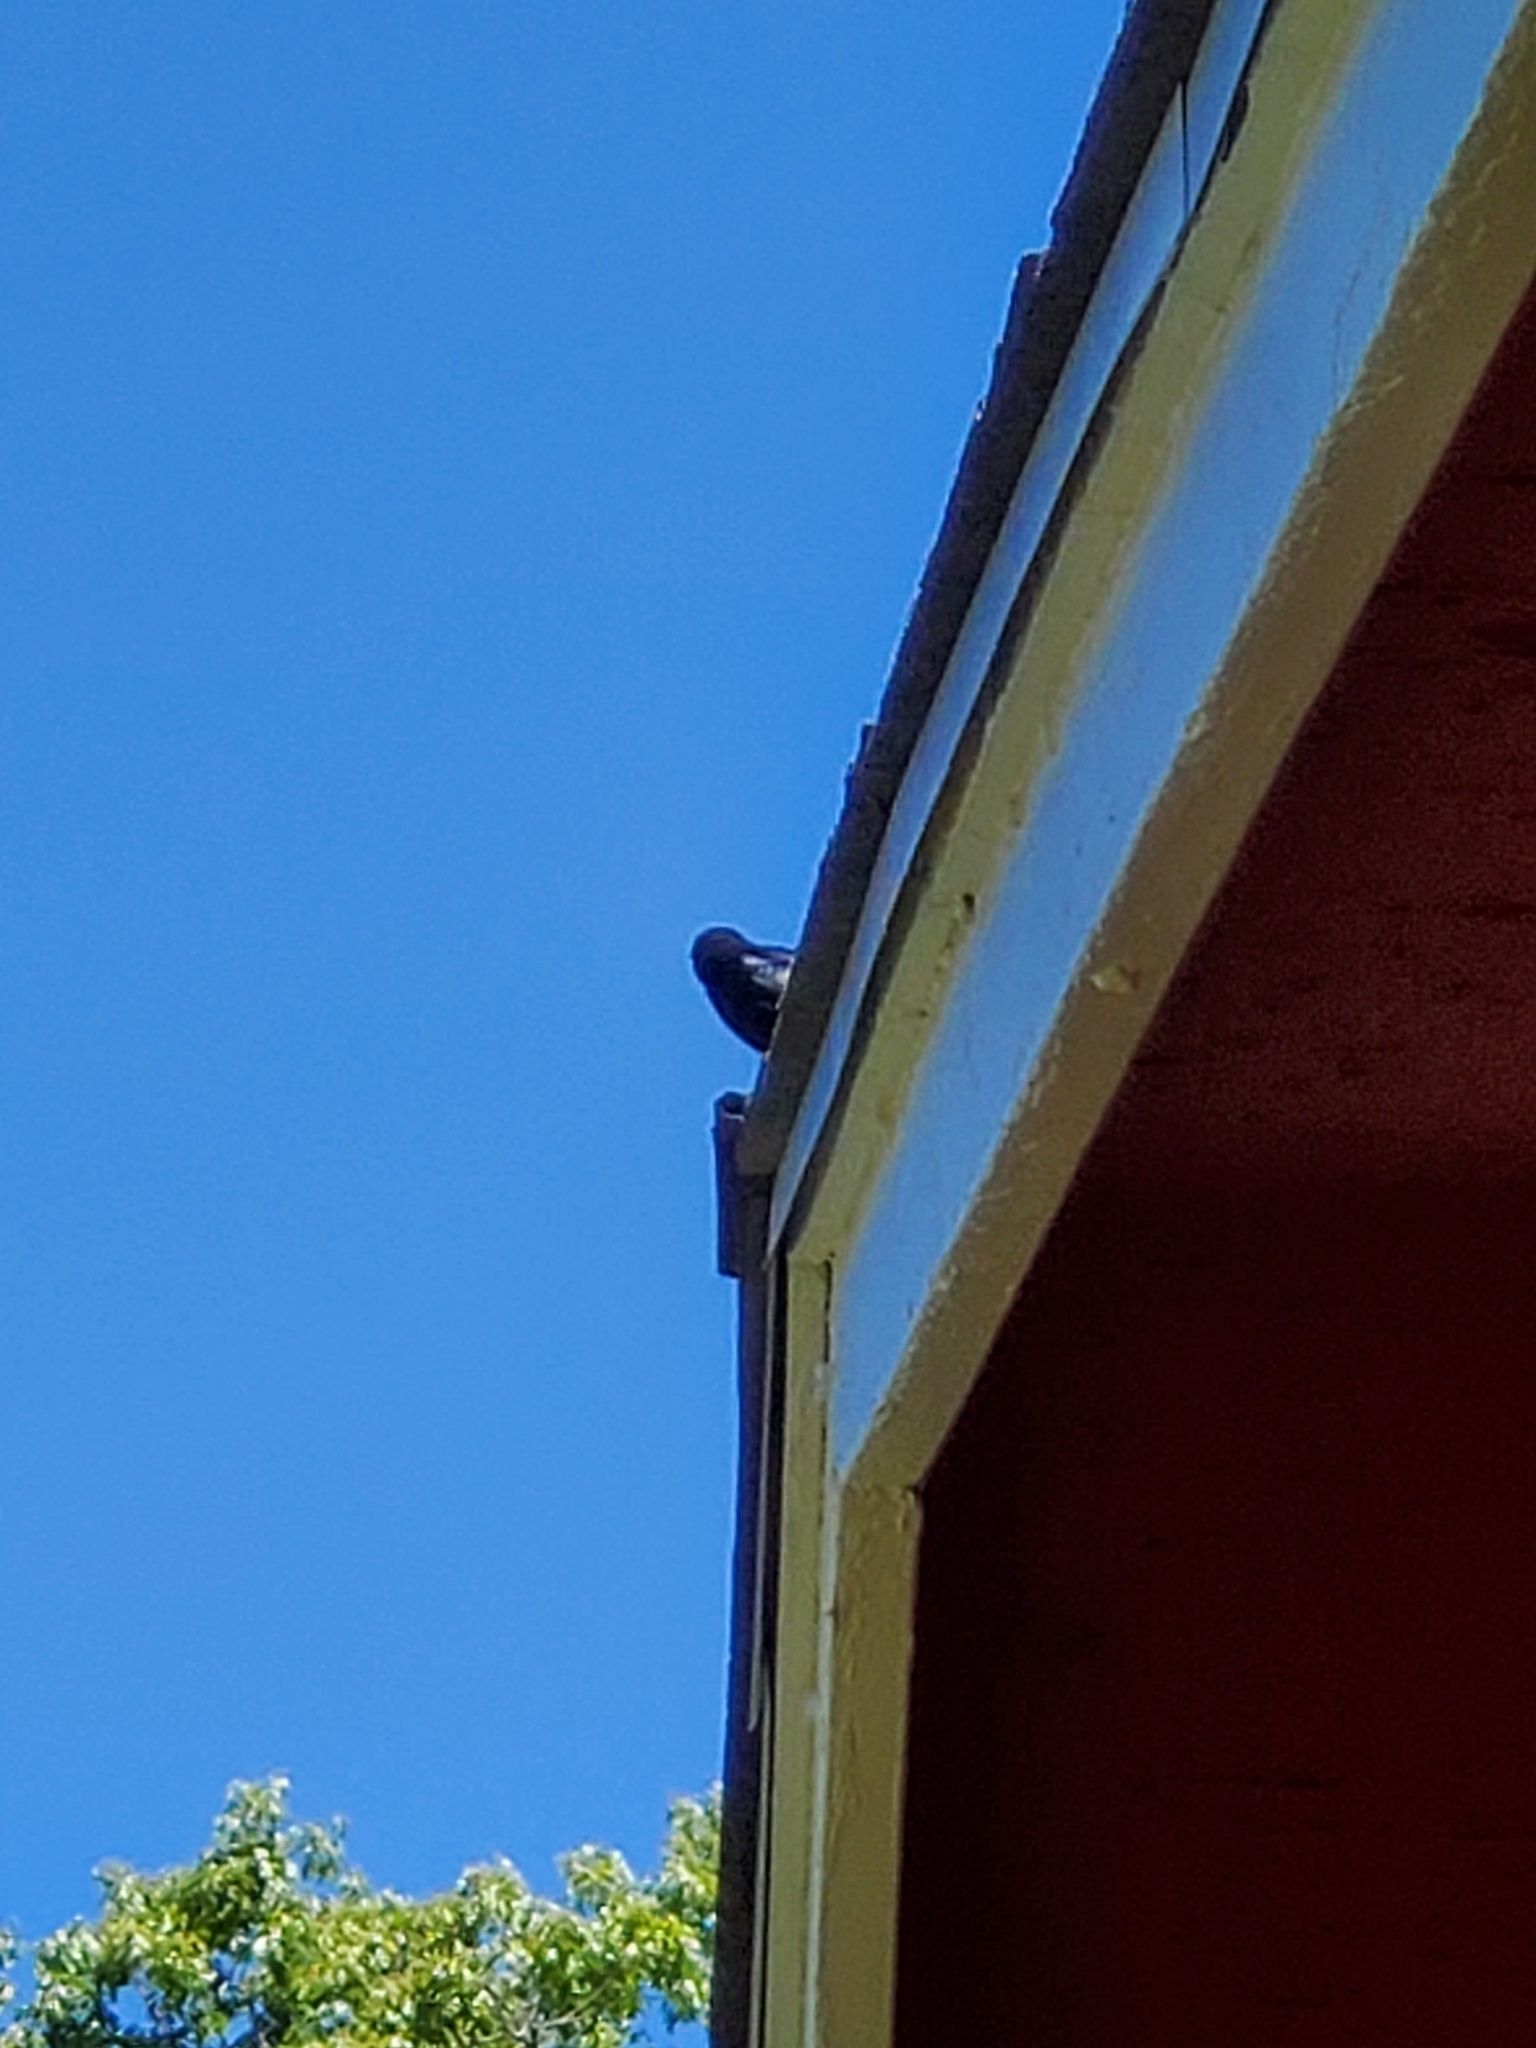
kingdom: Animalia
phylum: Chordata
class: Aves
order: Passeriformes
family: Icteridae
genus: Euphagus
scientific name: Euphagus cyanocephalus
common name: Brewer's blackbird
